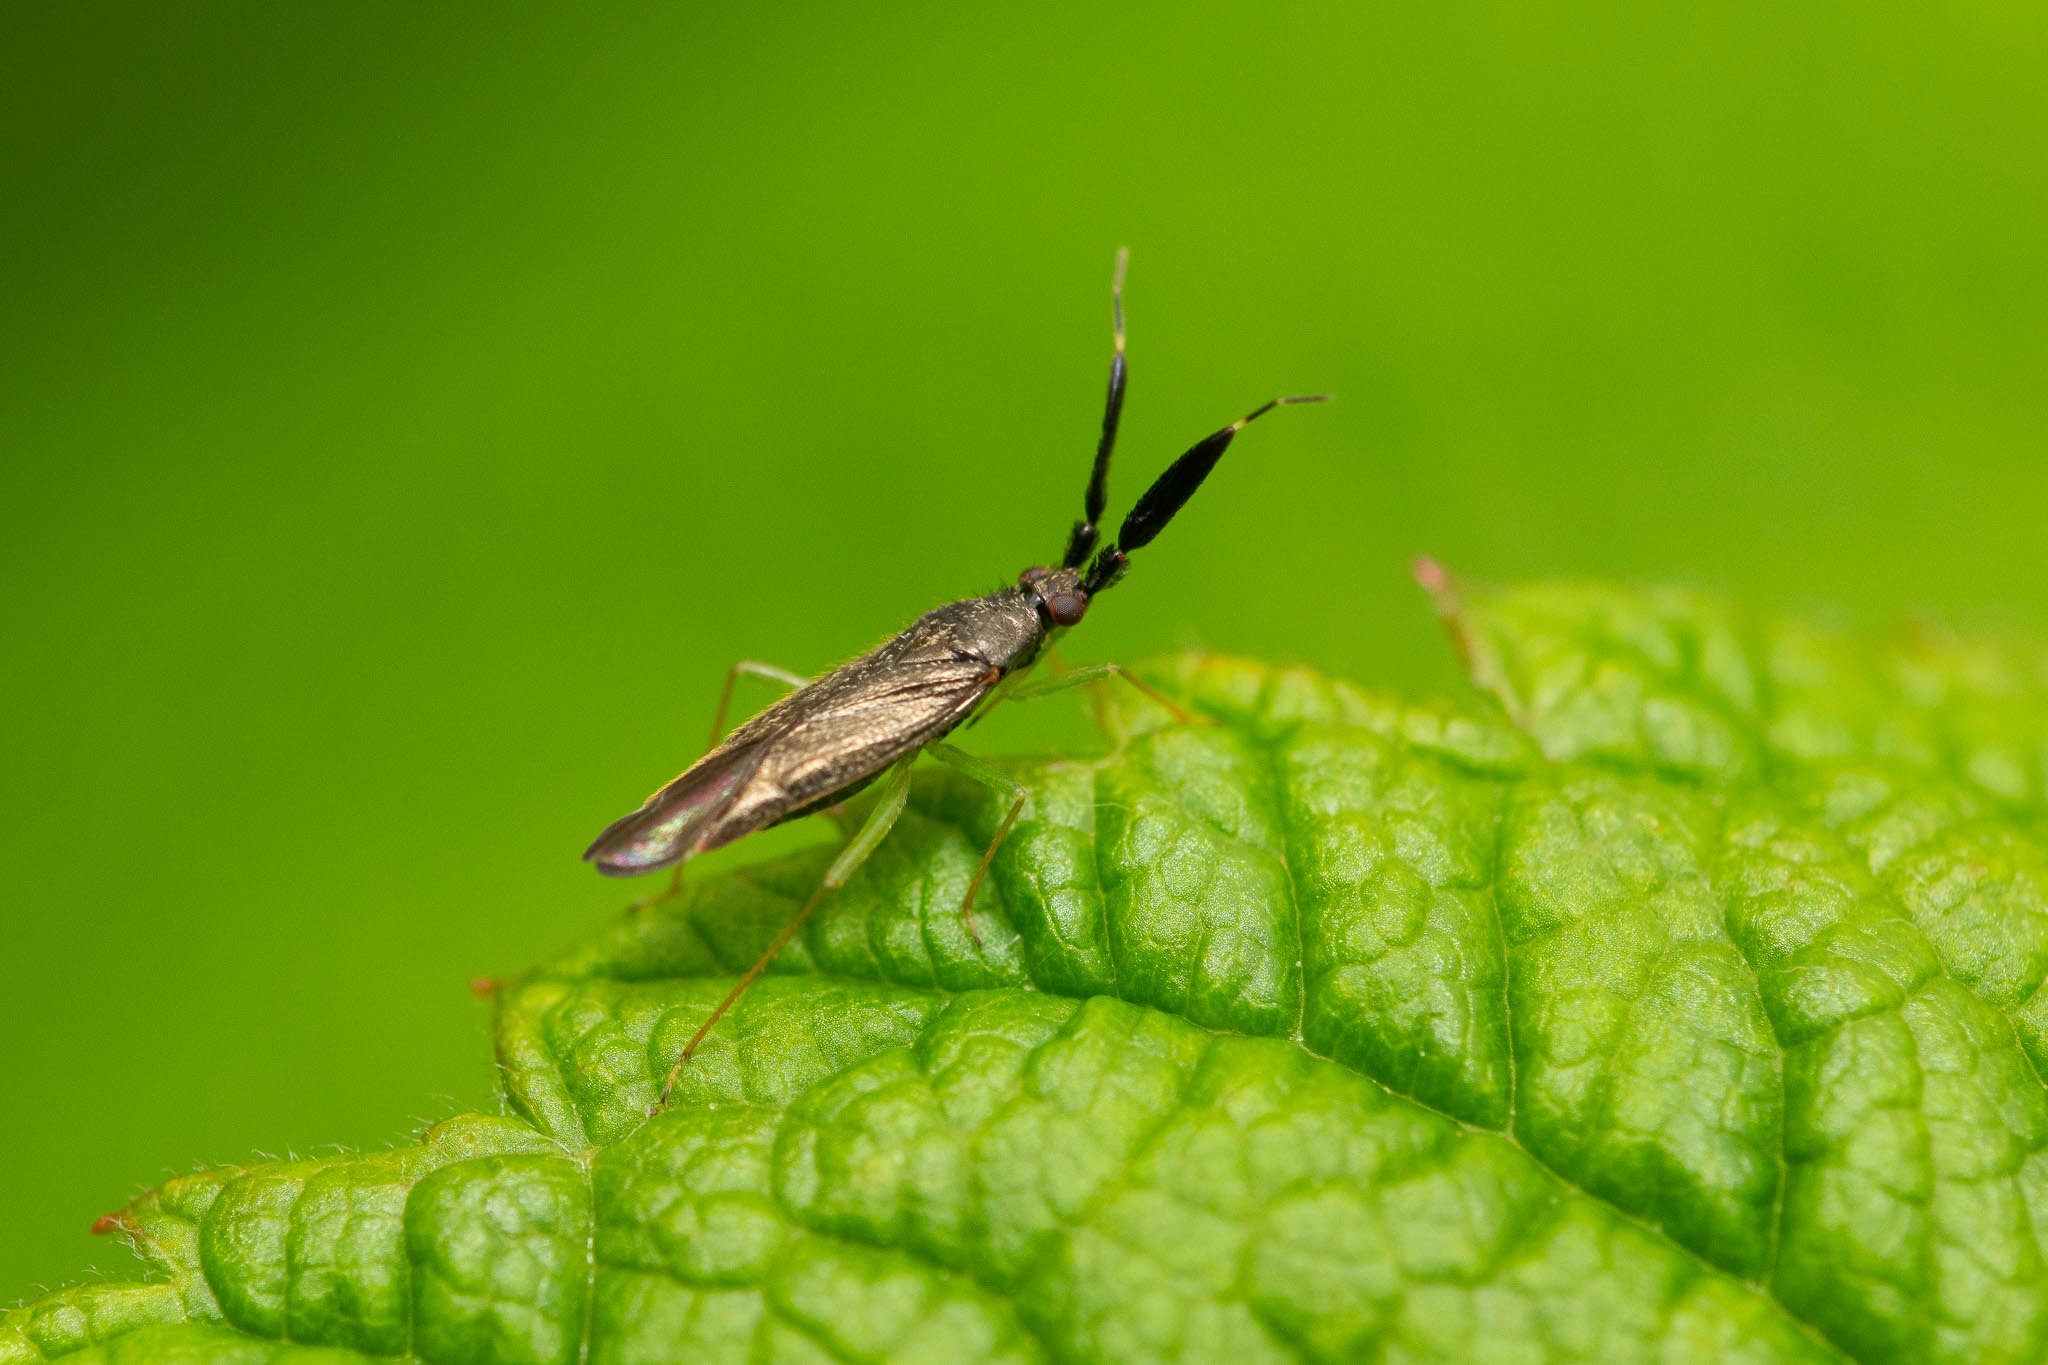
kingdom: Animalia
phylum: Arthropoda
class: Insecta
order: Hemiptera
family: Miridae
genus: Heterotoma
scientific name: Heterotoma planicornis
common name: Plant bug
